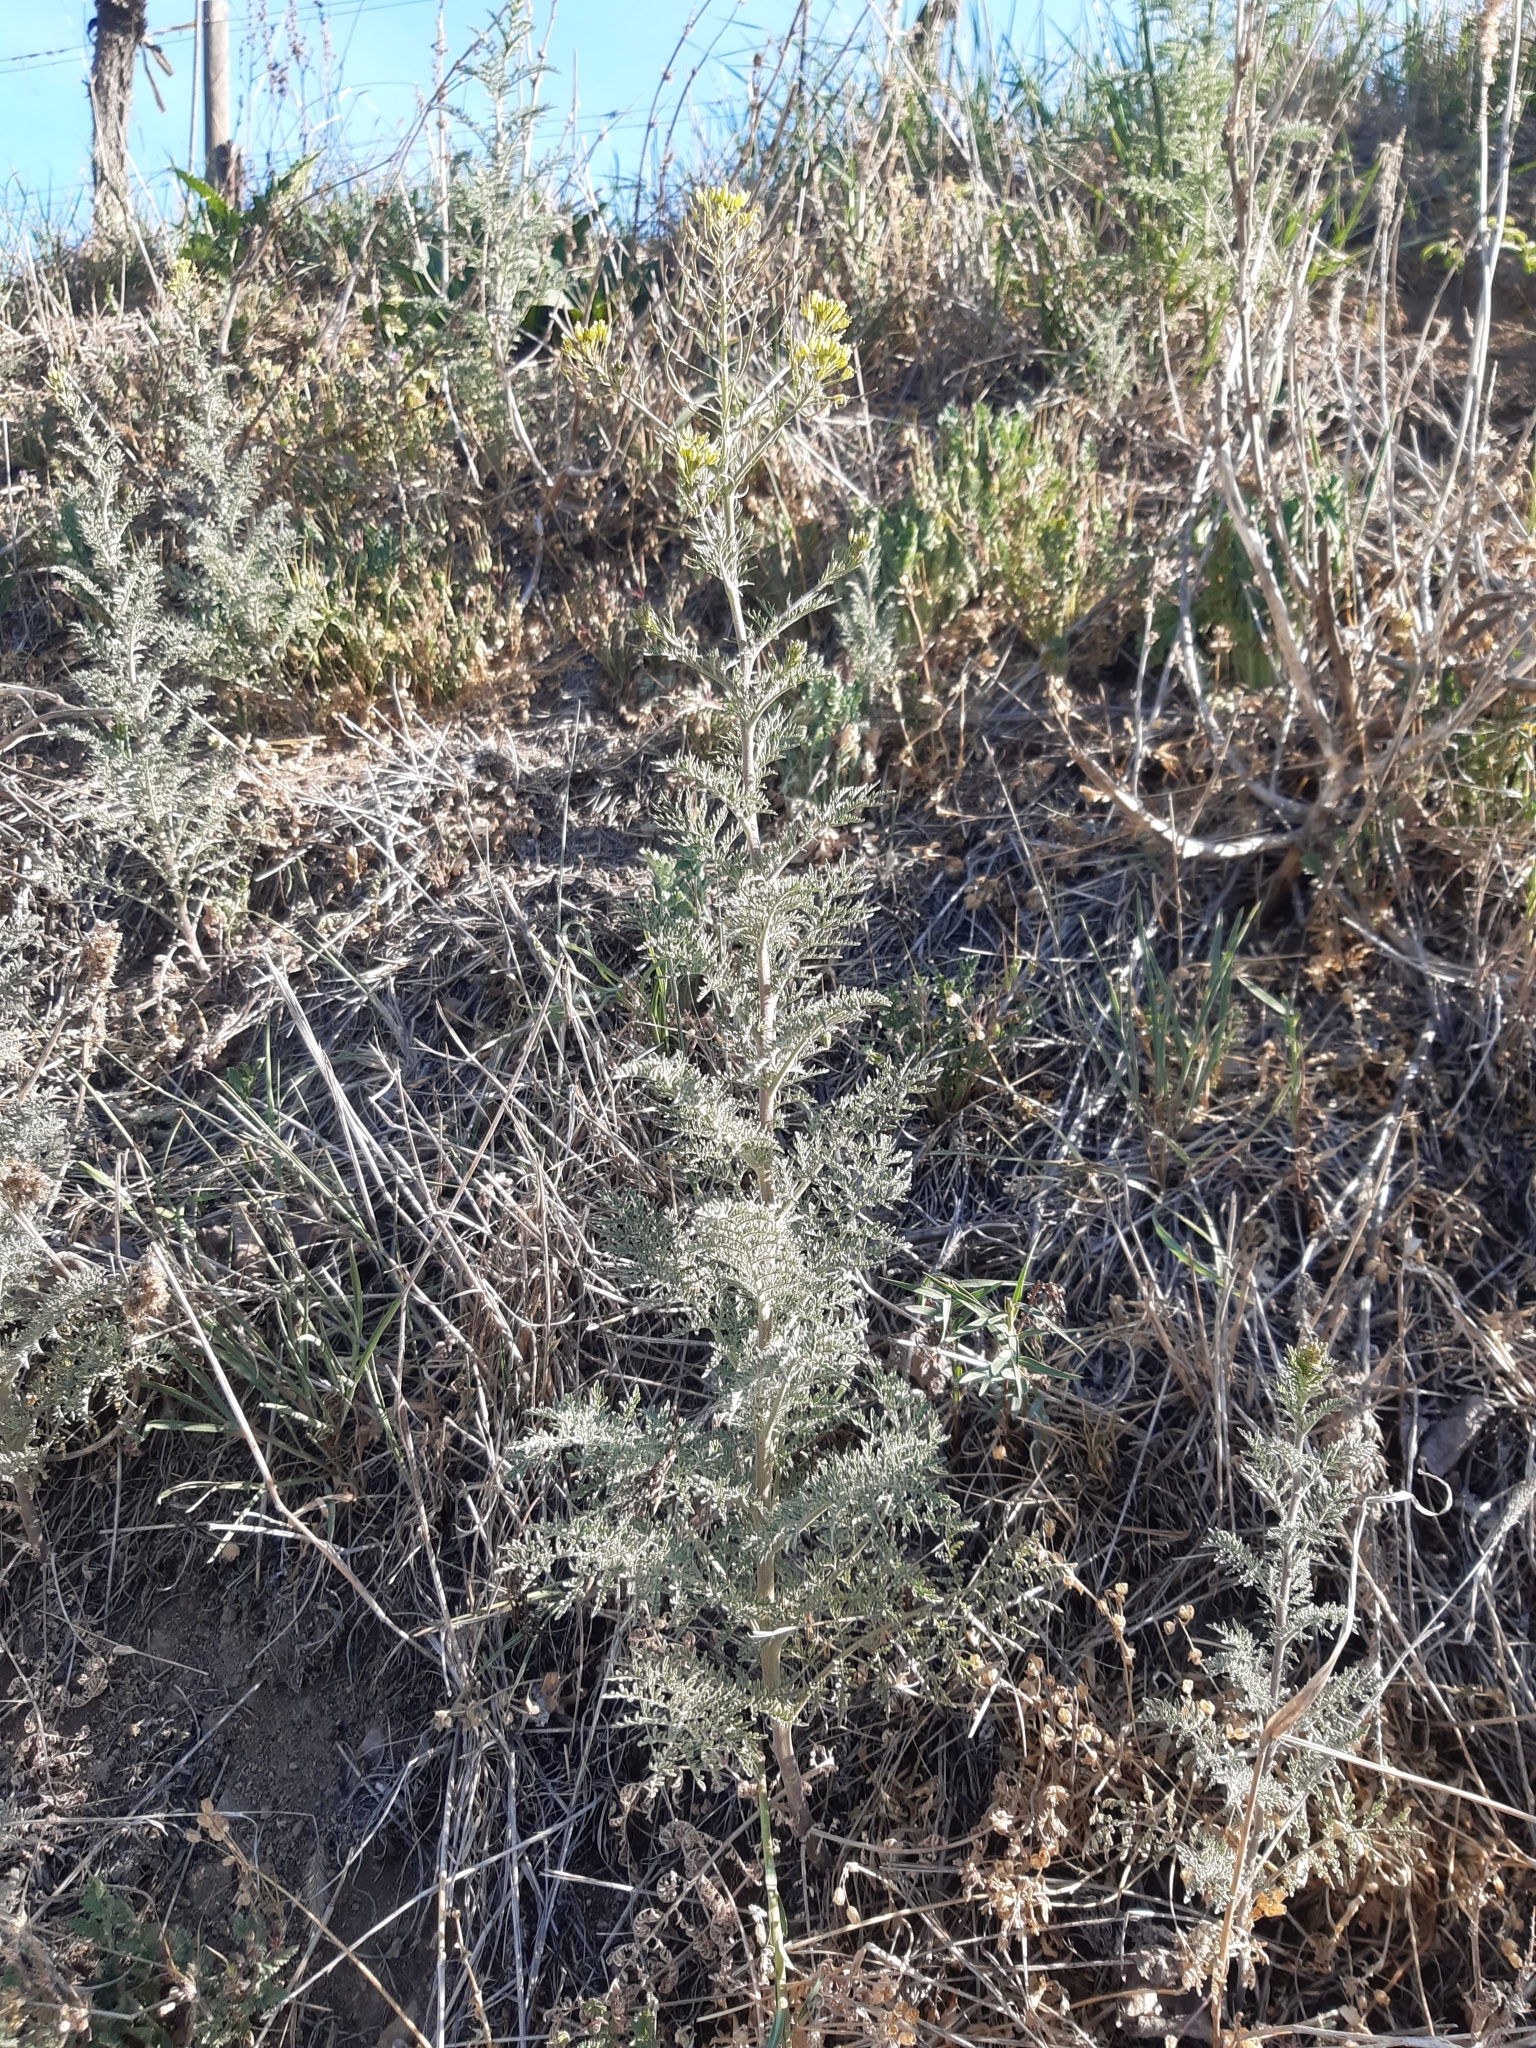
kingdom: Plantae
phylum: Tracheophyta
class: Magnoliopsida
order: Brassicales
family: Brassicaceae
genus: Descurainia
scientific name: Descurainia sophia
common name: Flixweed
